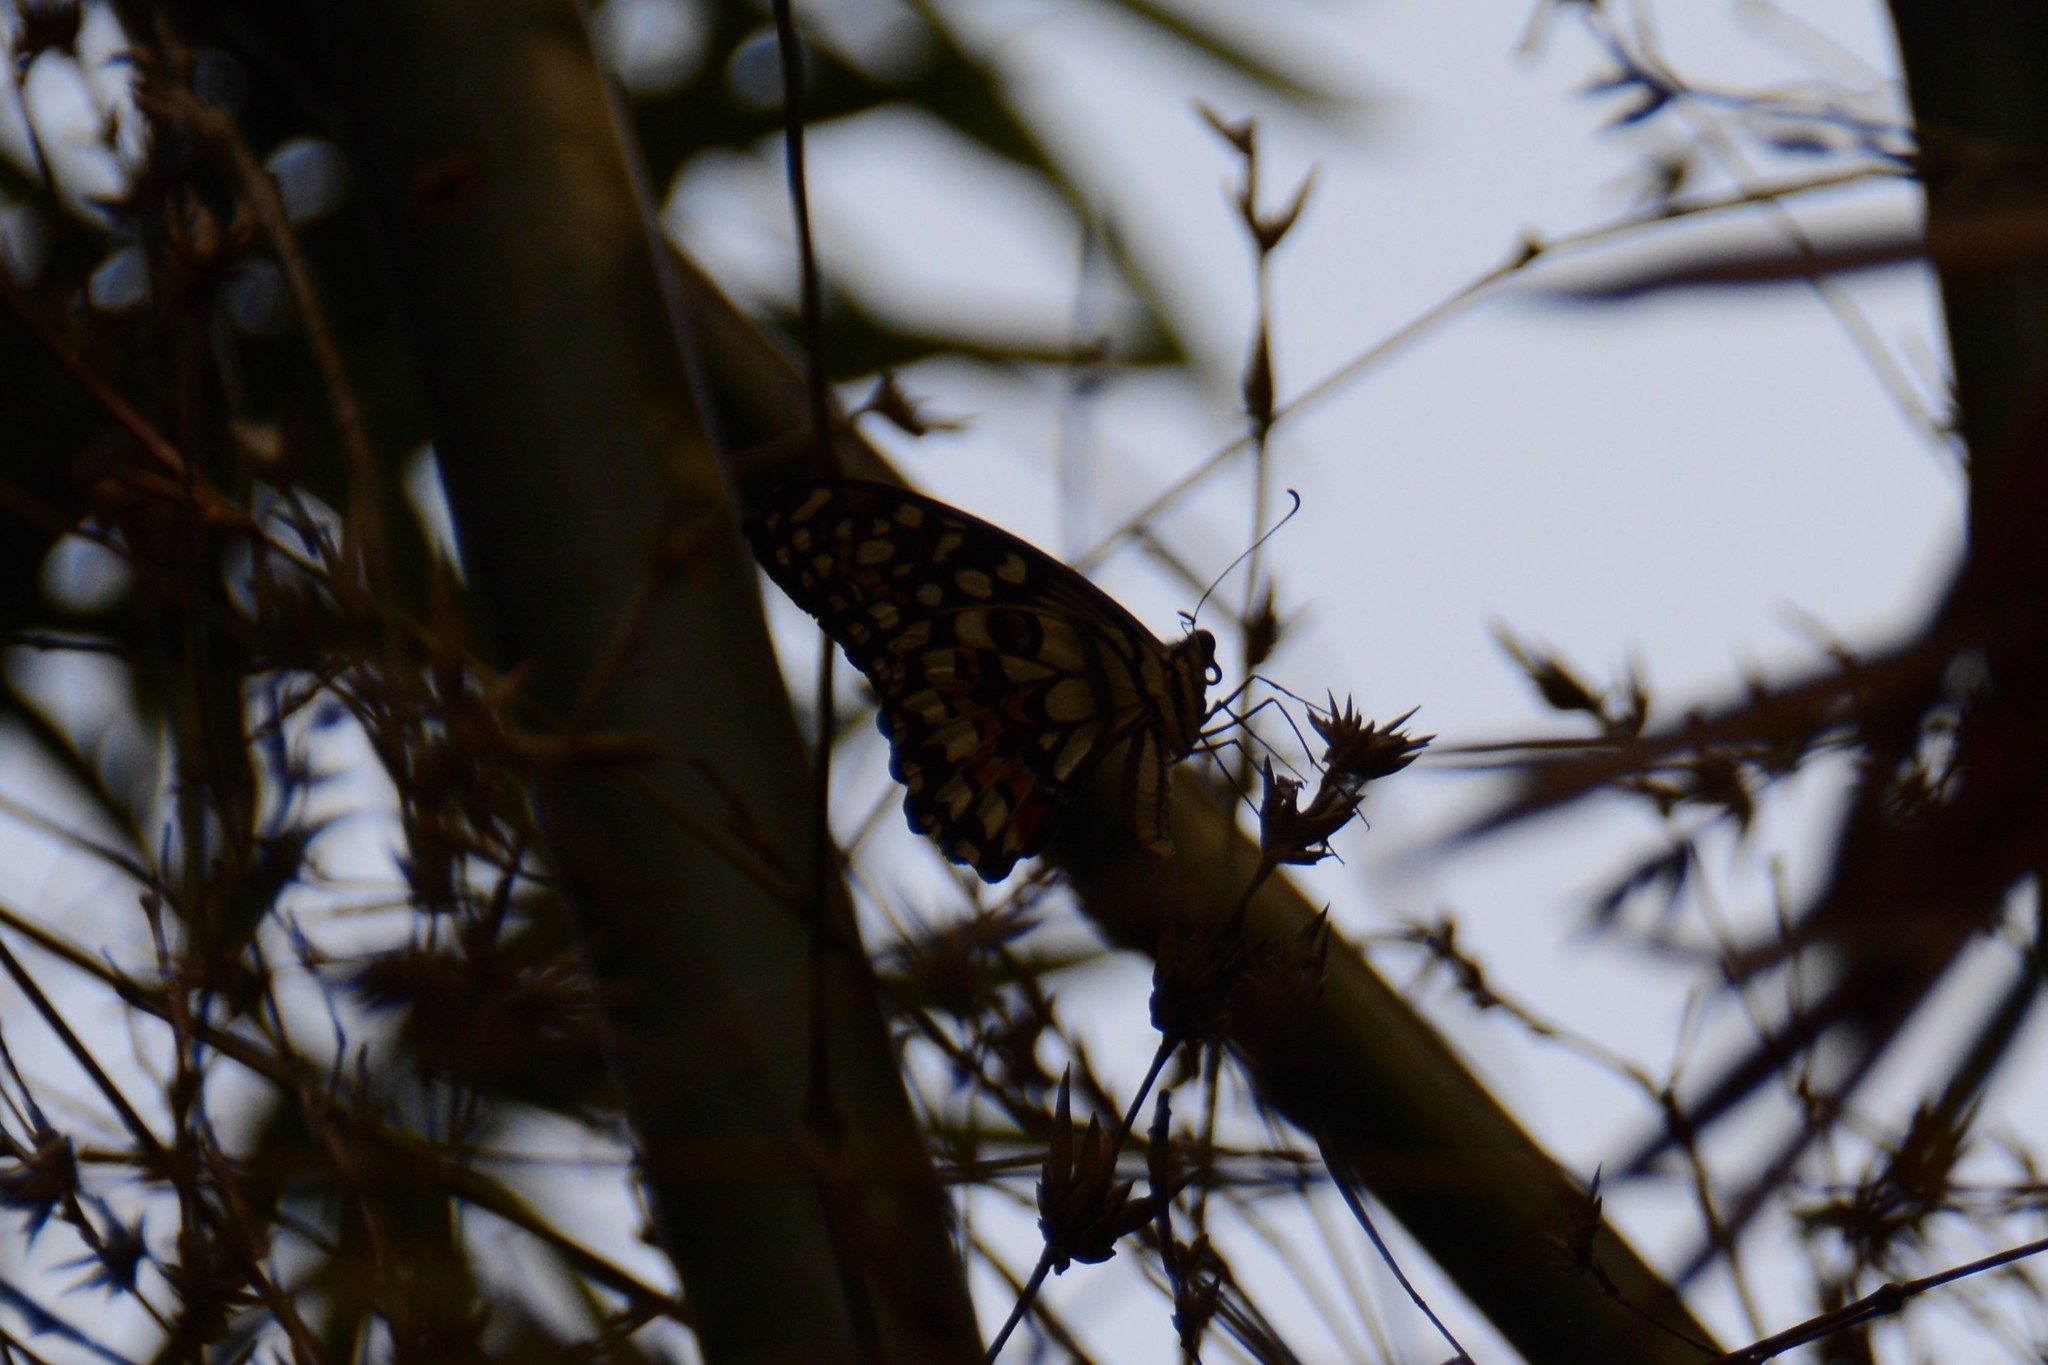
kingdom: Animalia
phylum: Arthropoda
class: Insecta
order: Lepidoptera
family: Papilionidae
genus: Papilio
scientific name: Papilio demoleus
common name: Lime butterfly
